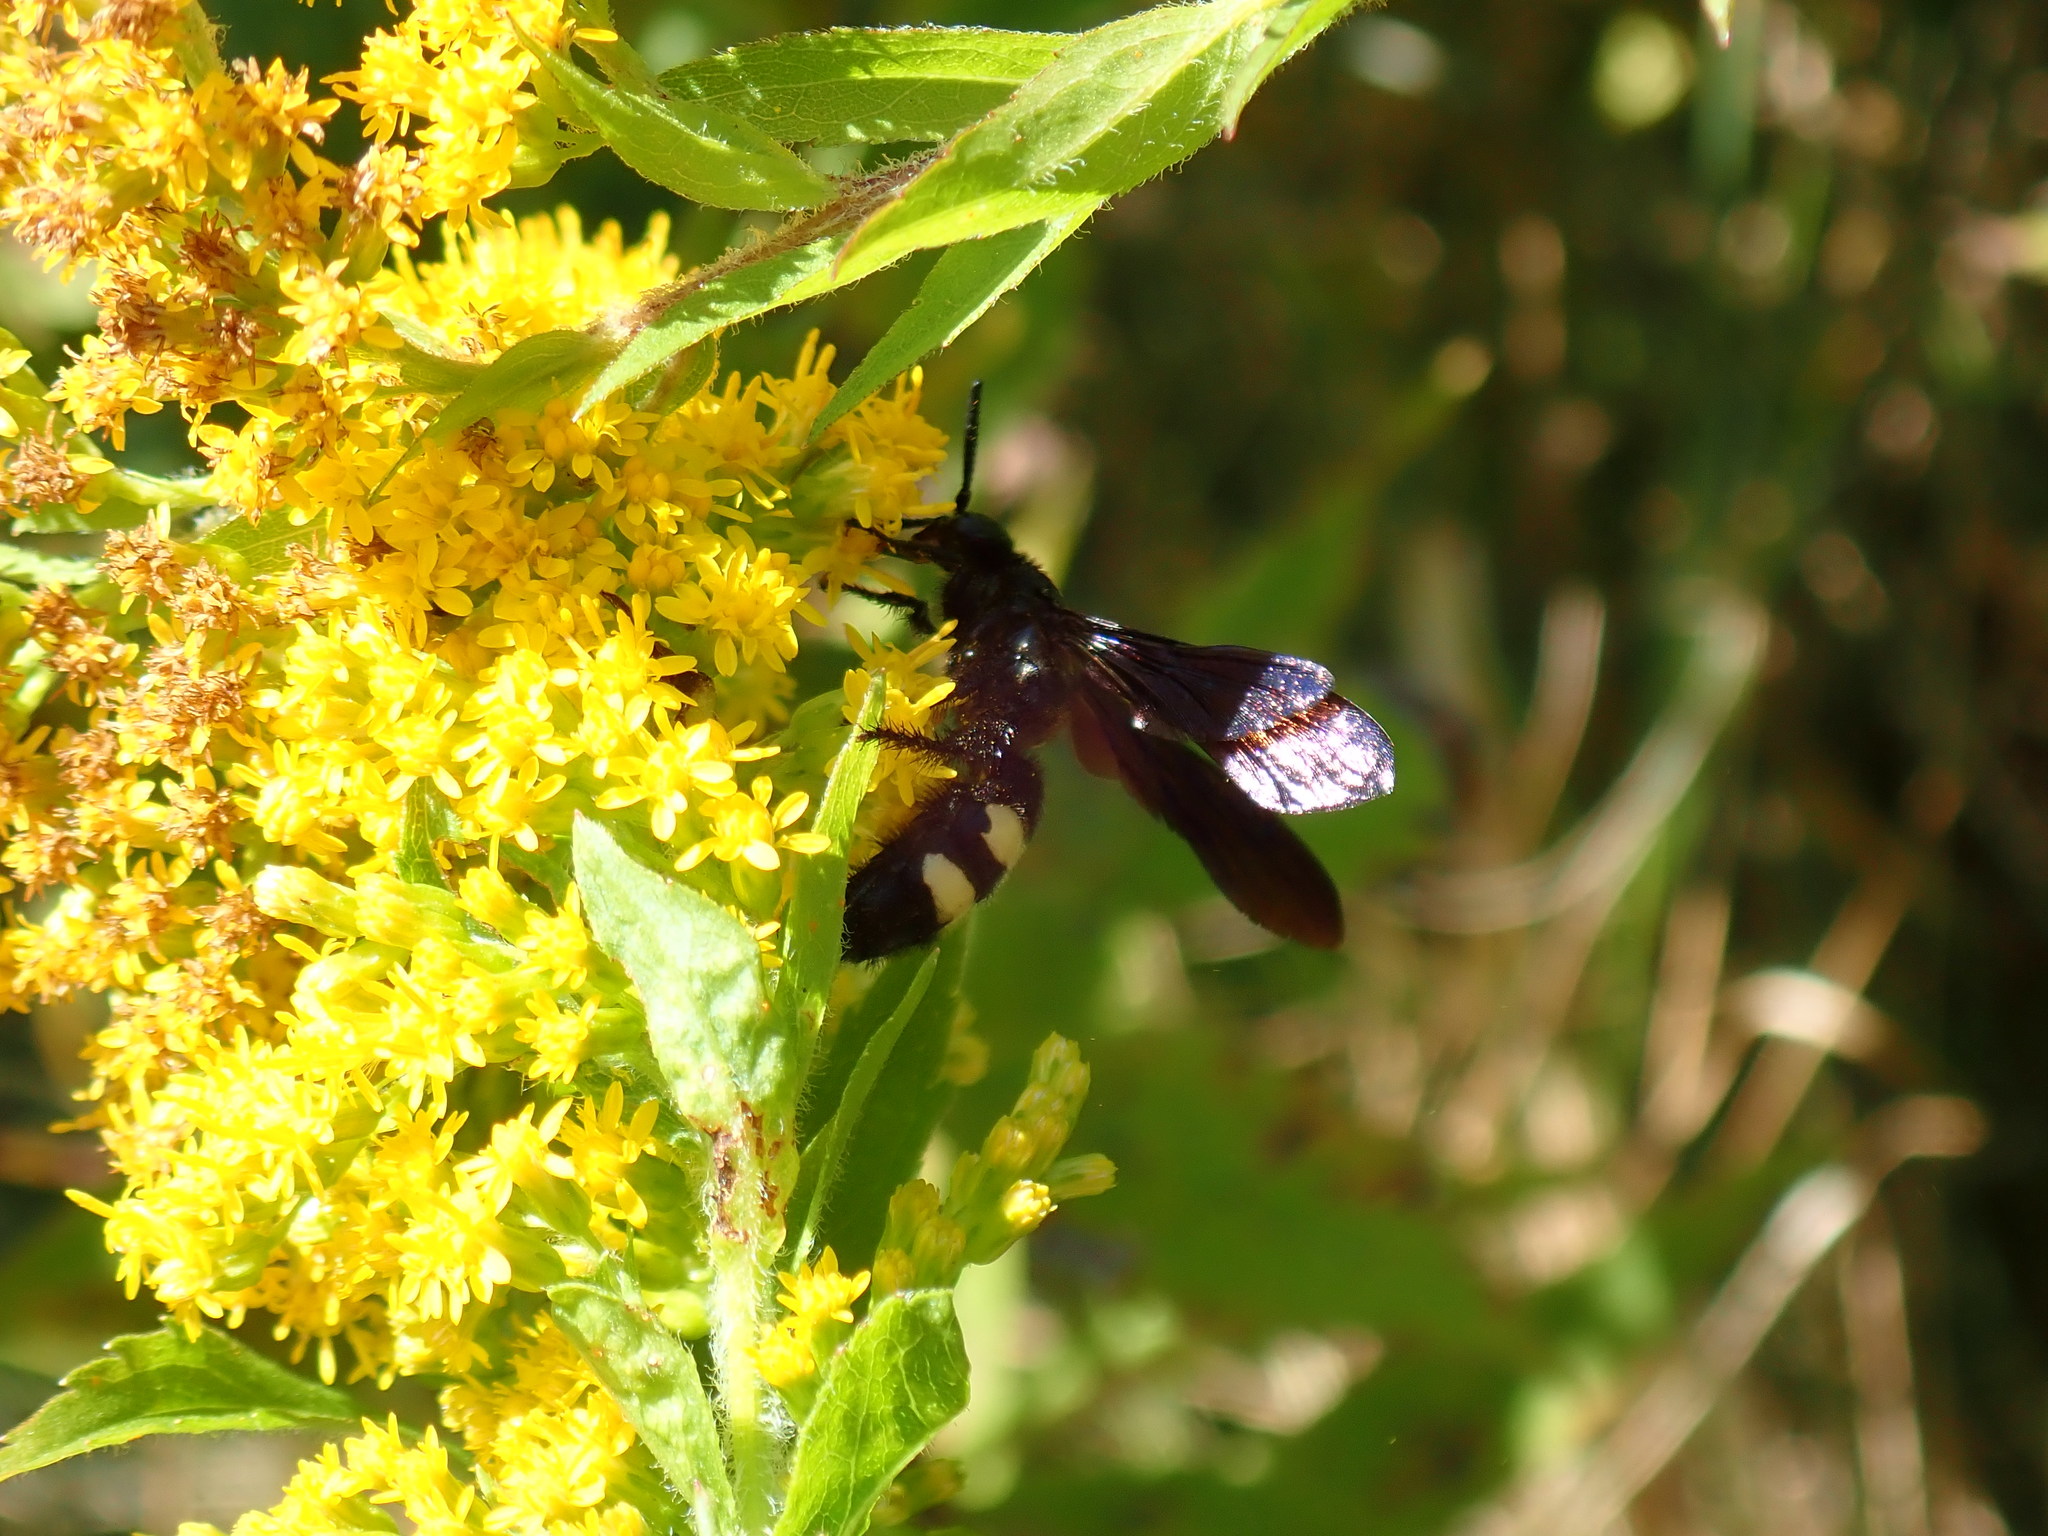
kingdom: Animalia
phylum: Arthropoda
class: Insecta
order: Hymenoptera
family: Scoliidae
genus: Scolia
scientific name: Scolia bicincta
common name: Double-banded scoliid wasp
